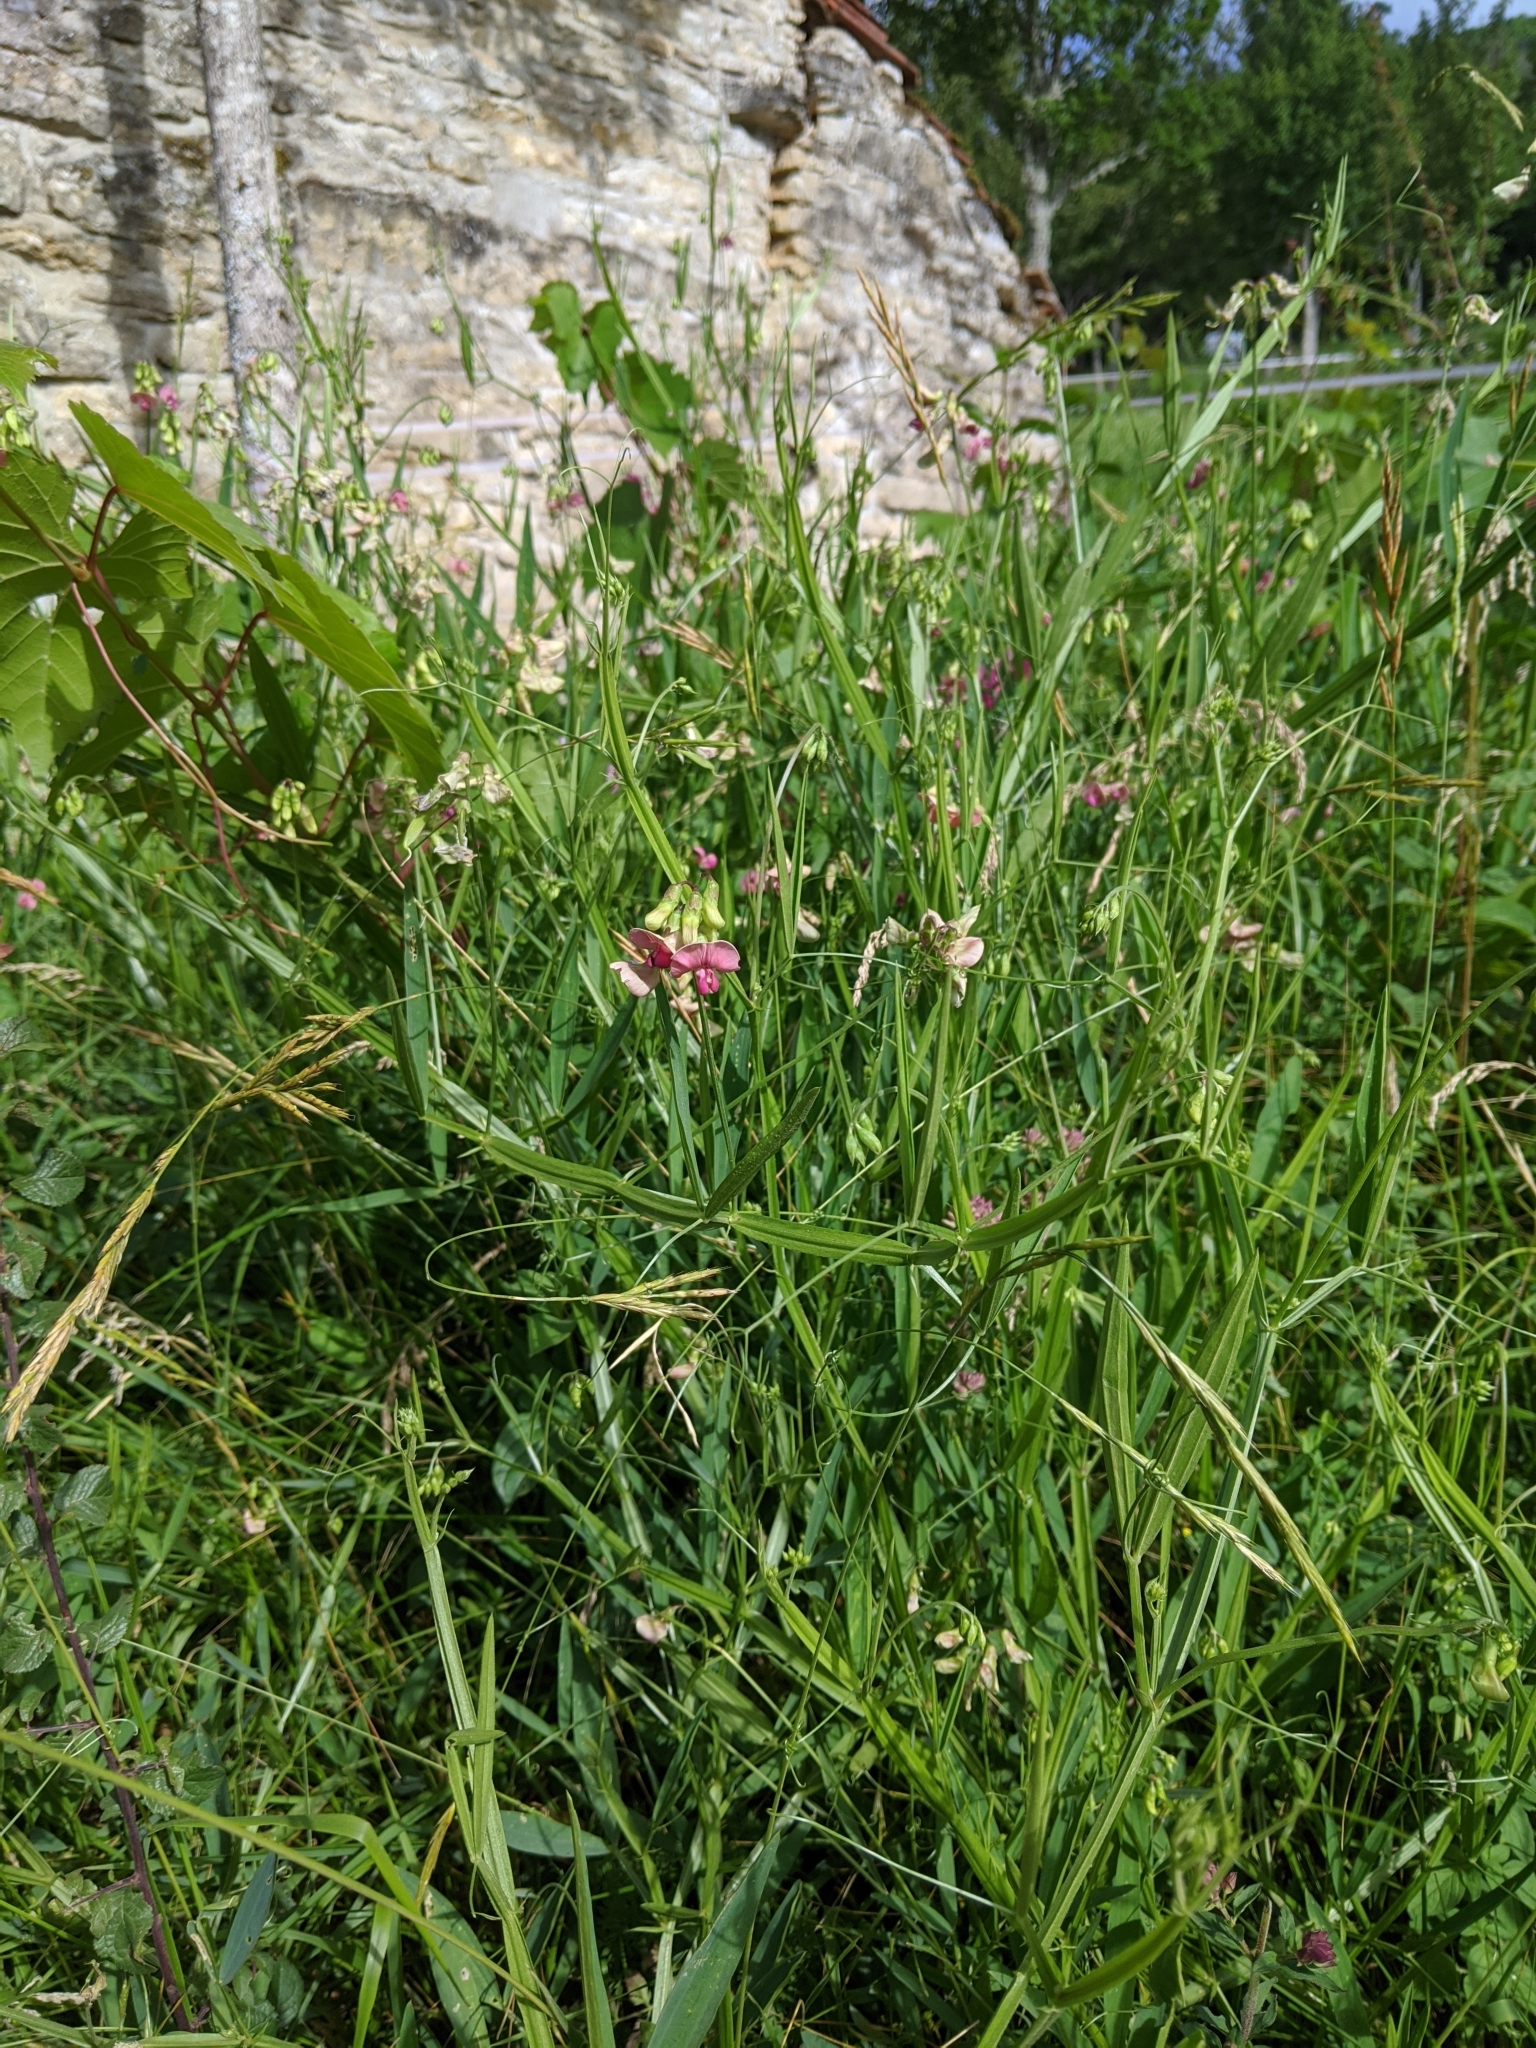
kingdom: Plantae
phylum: Tracheophyta
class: Magnoliopsida
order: Fabales
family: Fabaceae
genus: Lathyrus
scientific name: Lathyrus sylvestris
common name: Flat pea
